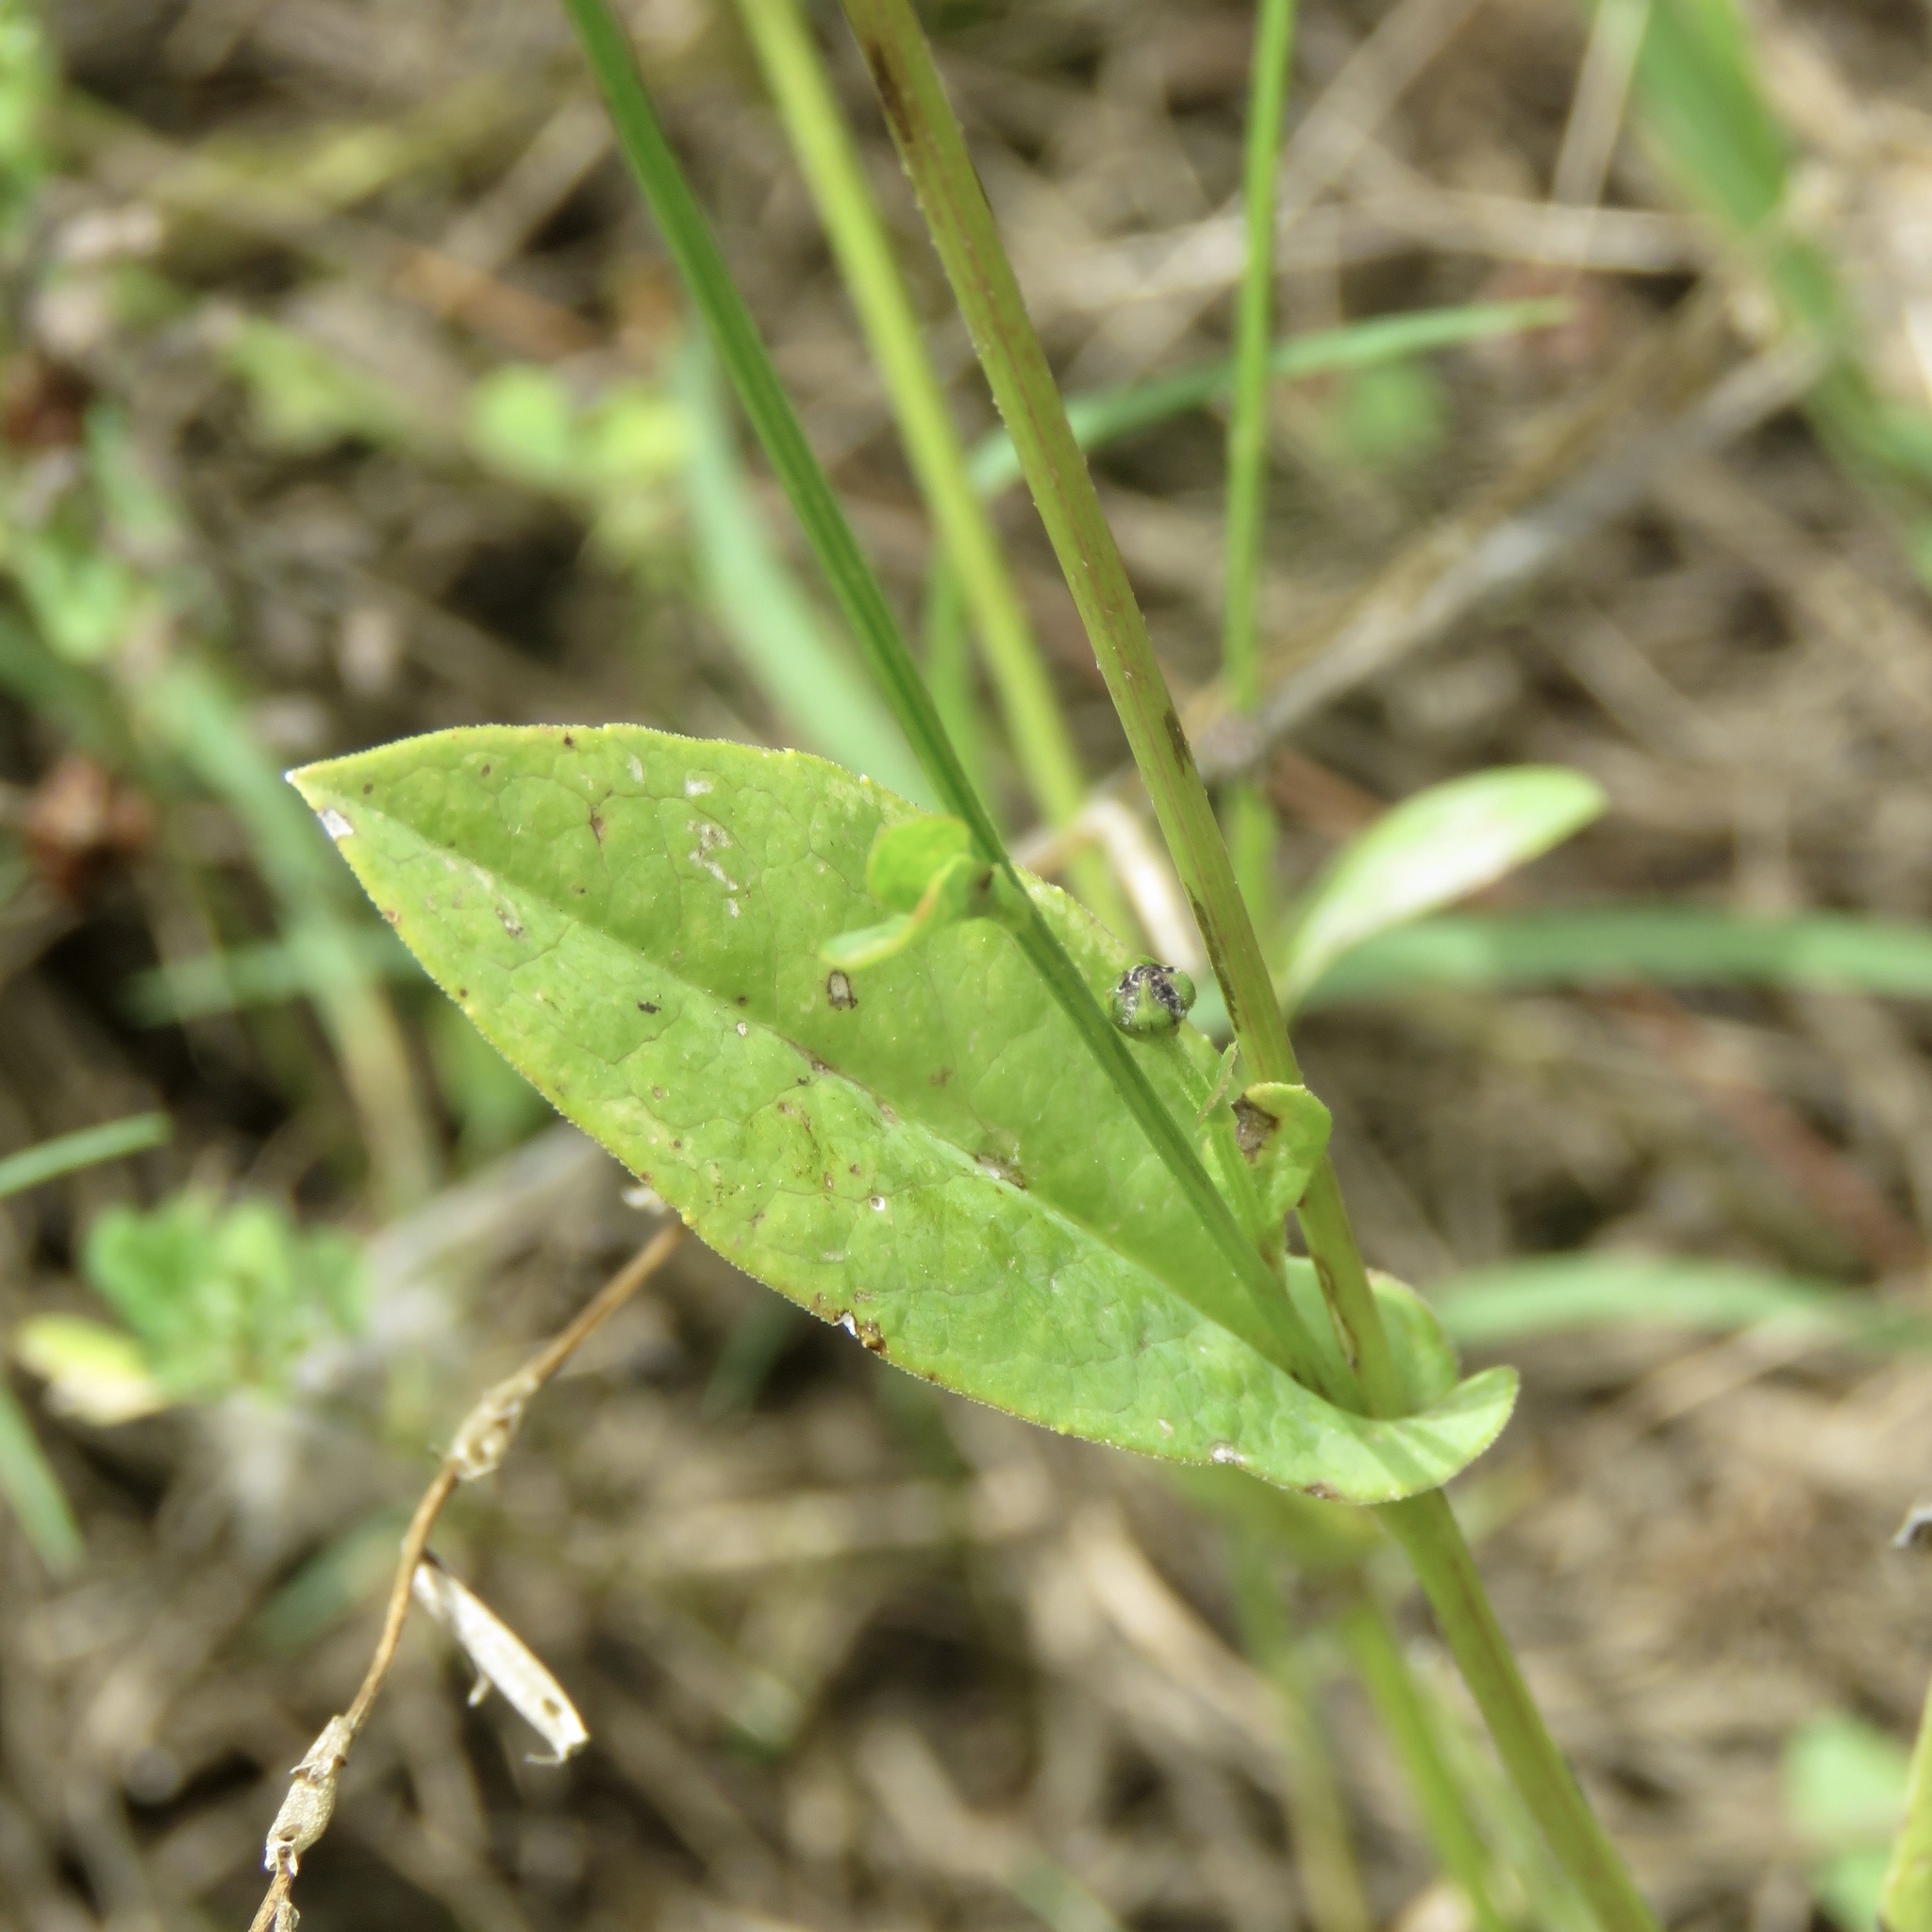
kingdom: Plantae
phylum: Tracheophyta
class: Magnoliopsida
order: Asterales
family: Asteraceae
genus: Rudbeckia
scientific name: Rudbeckia amplexicaulis
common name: Clasping-leaf coneflower
